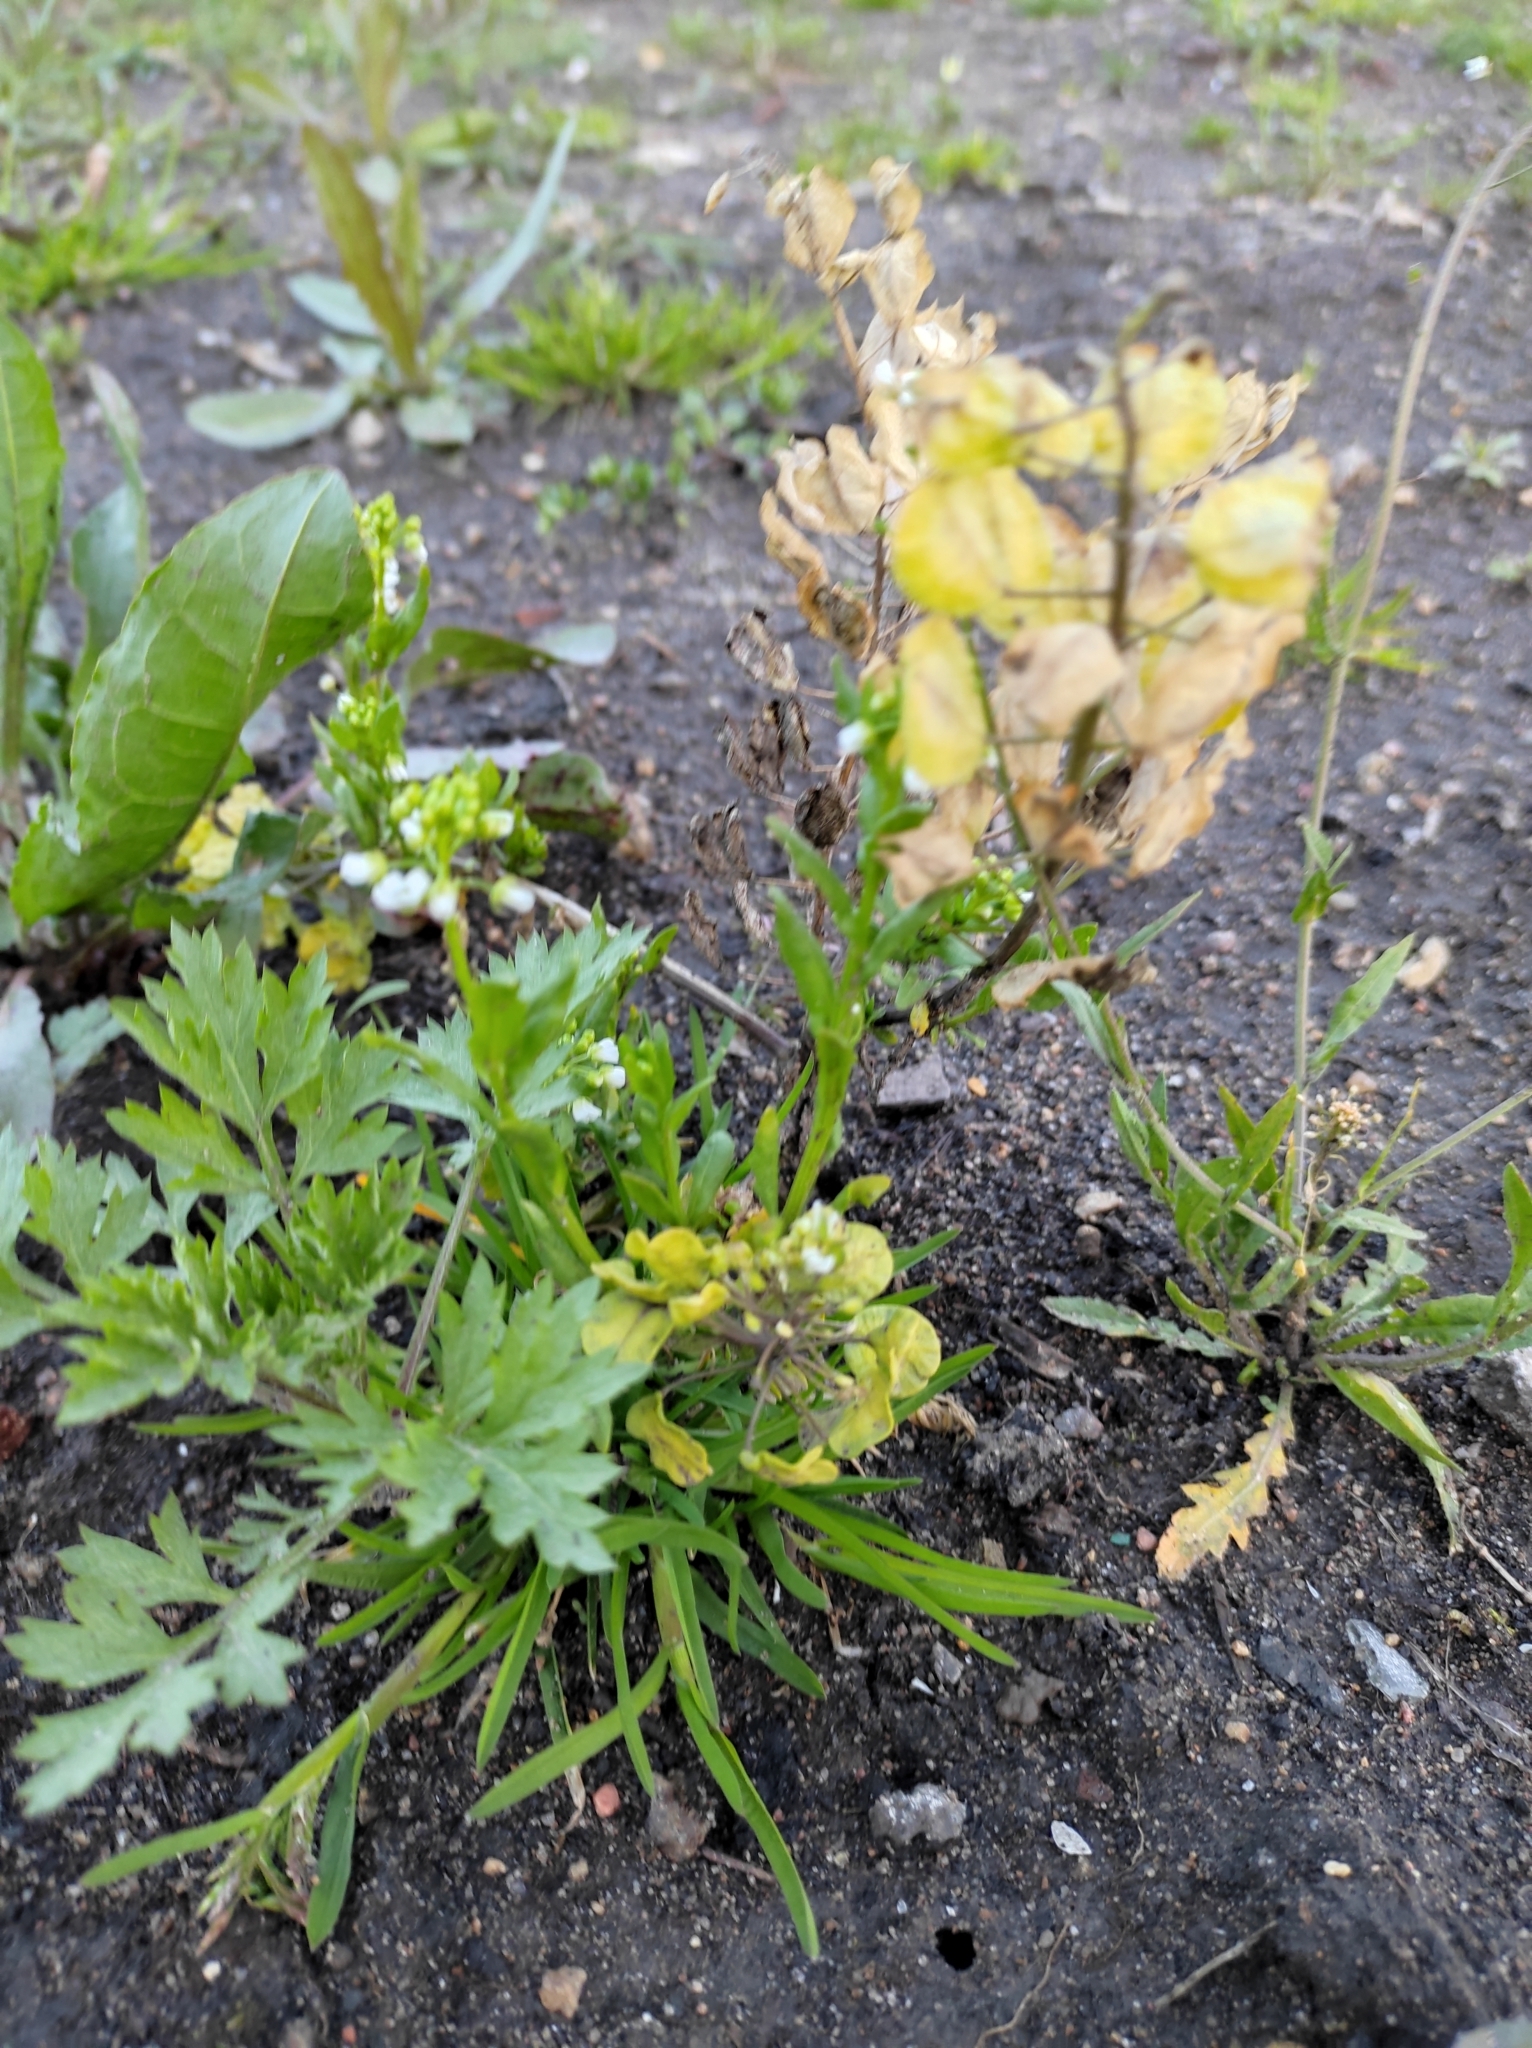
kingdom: Plantae
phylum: Tracheophyta
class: Magnoliopsida
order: Brassicales
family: Brassicaceae
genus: Thlaspi
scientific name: Thlaspi arvense
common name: Field pennycress
